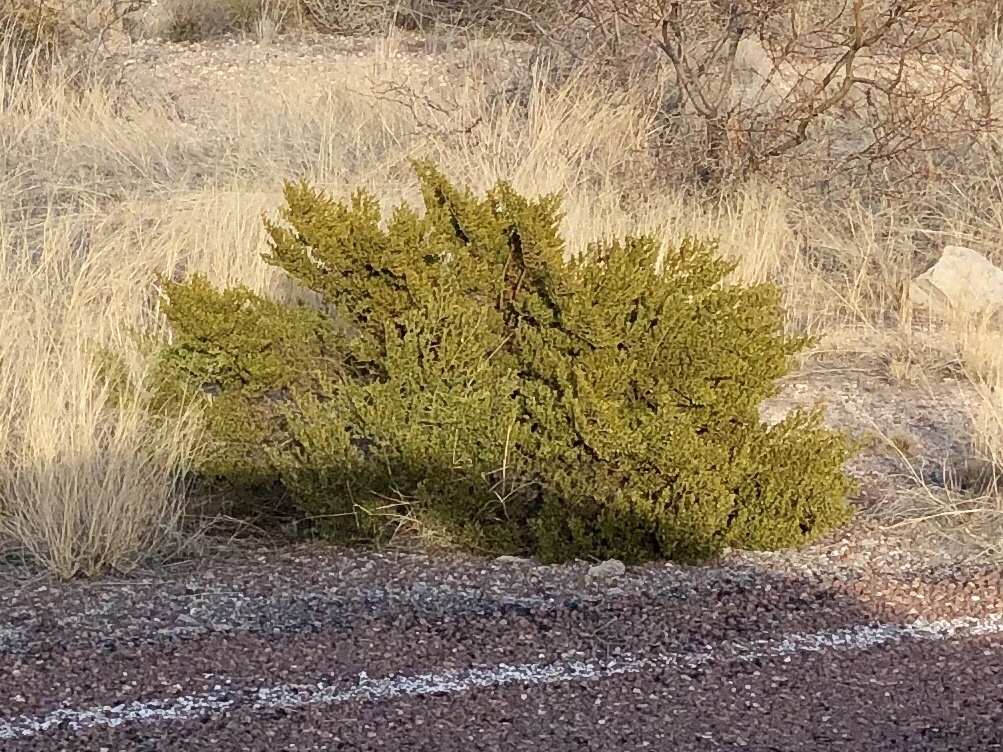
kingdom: Plantae
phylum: Tracheophyta
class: Magnoliopsida
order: Zygophyllales
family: Zygophyllaceae
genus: Larrea
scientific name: Larrea tridentata
